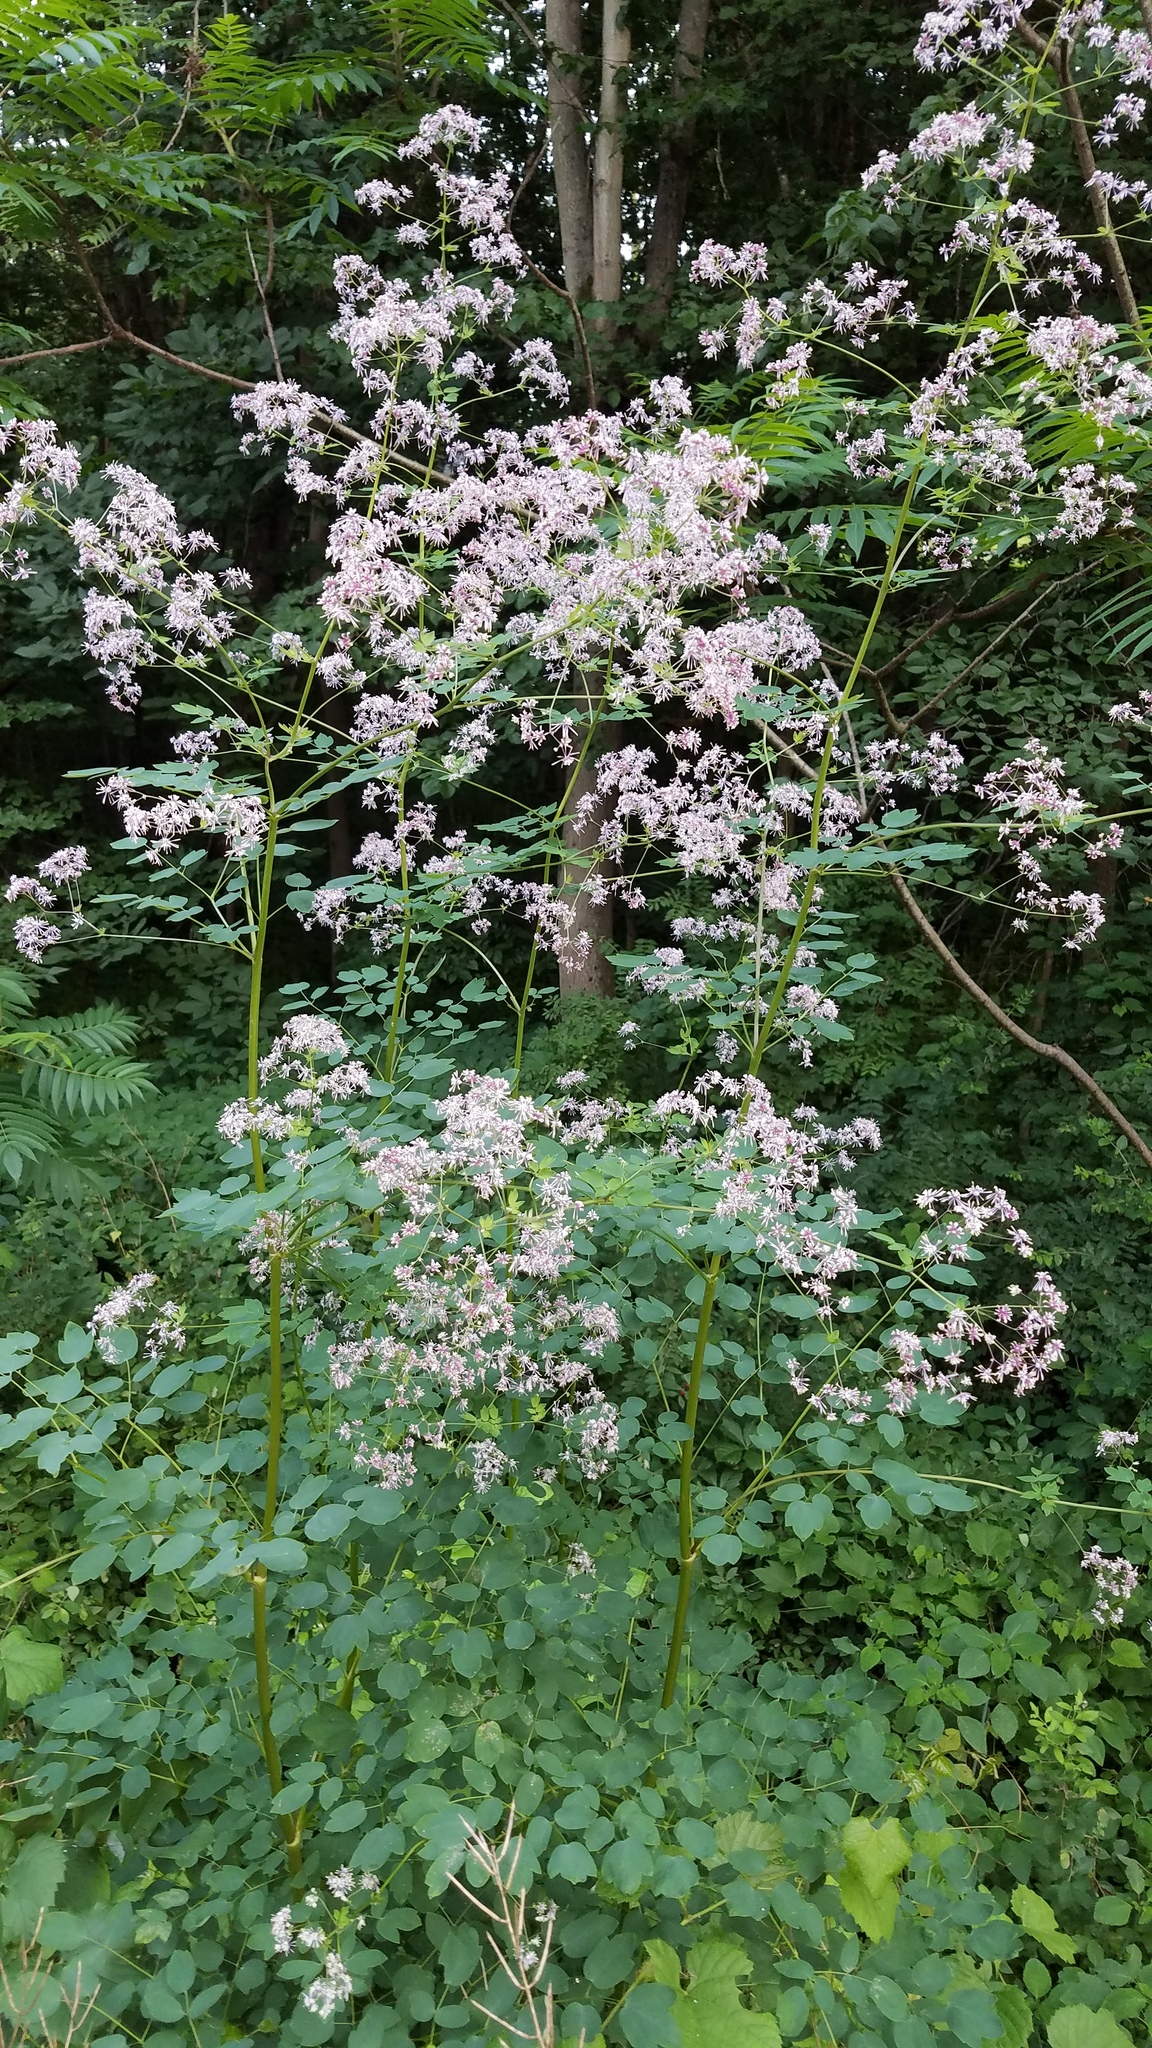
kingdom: Plantae
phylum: Tracheophyta
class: Magnoliopsida
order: Ranunculales
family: Ranunculaceae
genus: Thalictrum
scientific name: Thalictrum pubescens
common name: King-of-the-meadow
